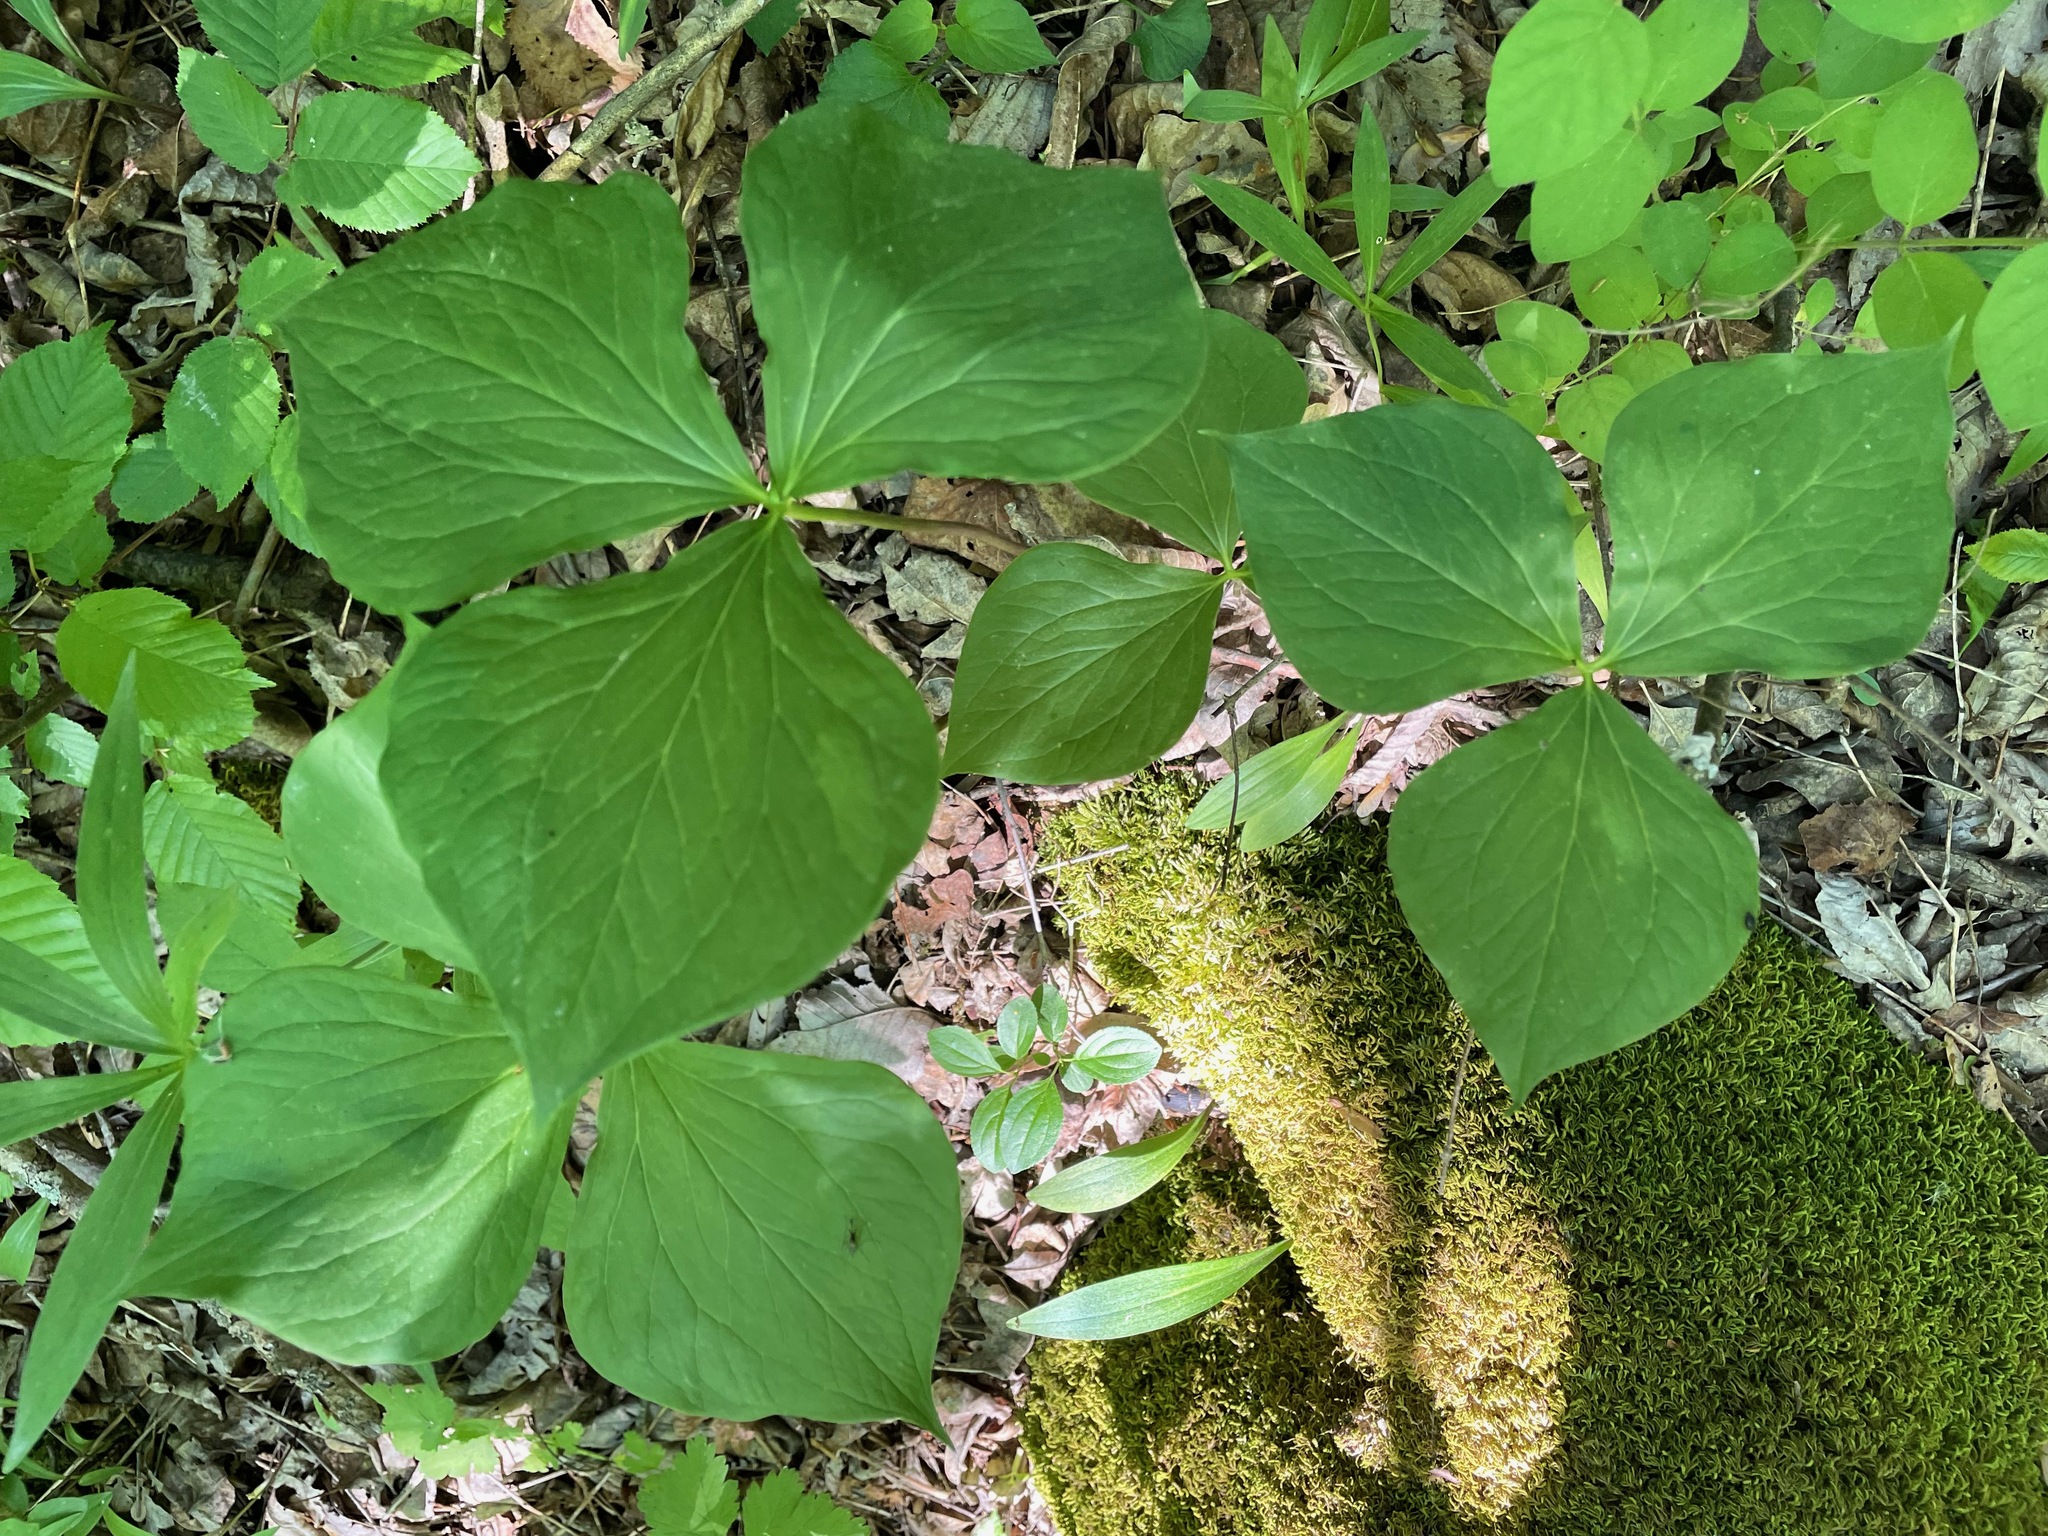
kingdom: Plantae
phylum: Tracheophyta
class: Liliopsida
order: Liliales
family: Melanthiaceae
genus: Trillium
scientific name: Trillium cernuum
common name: Nodding trillium
